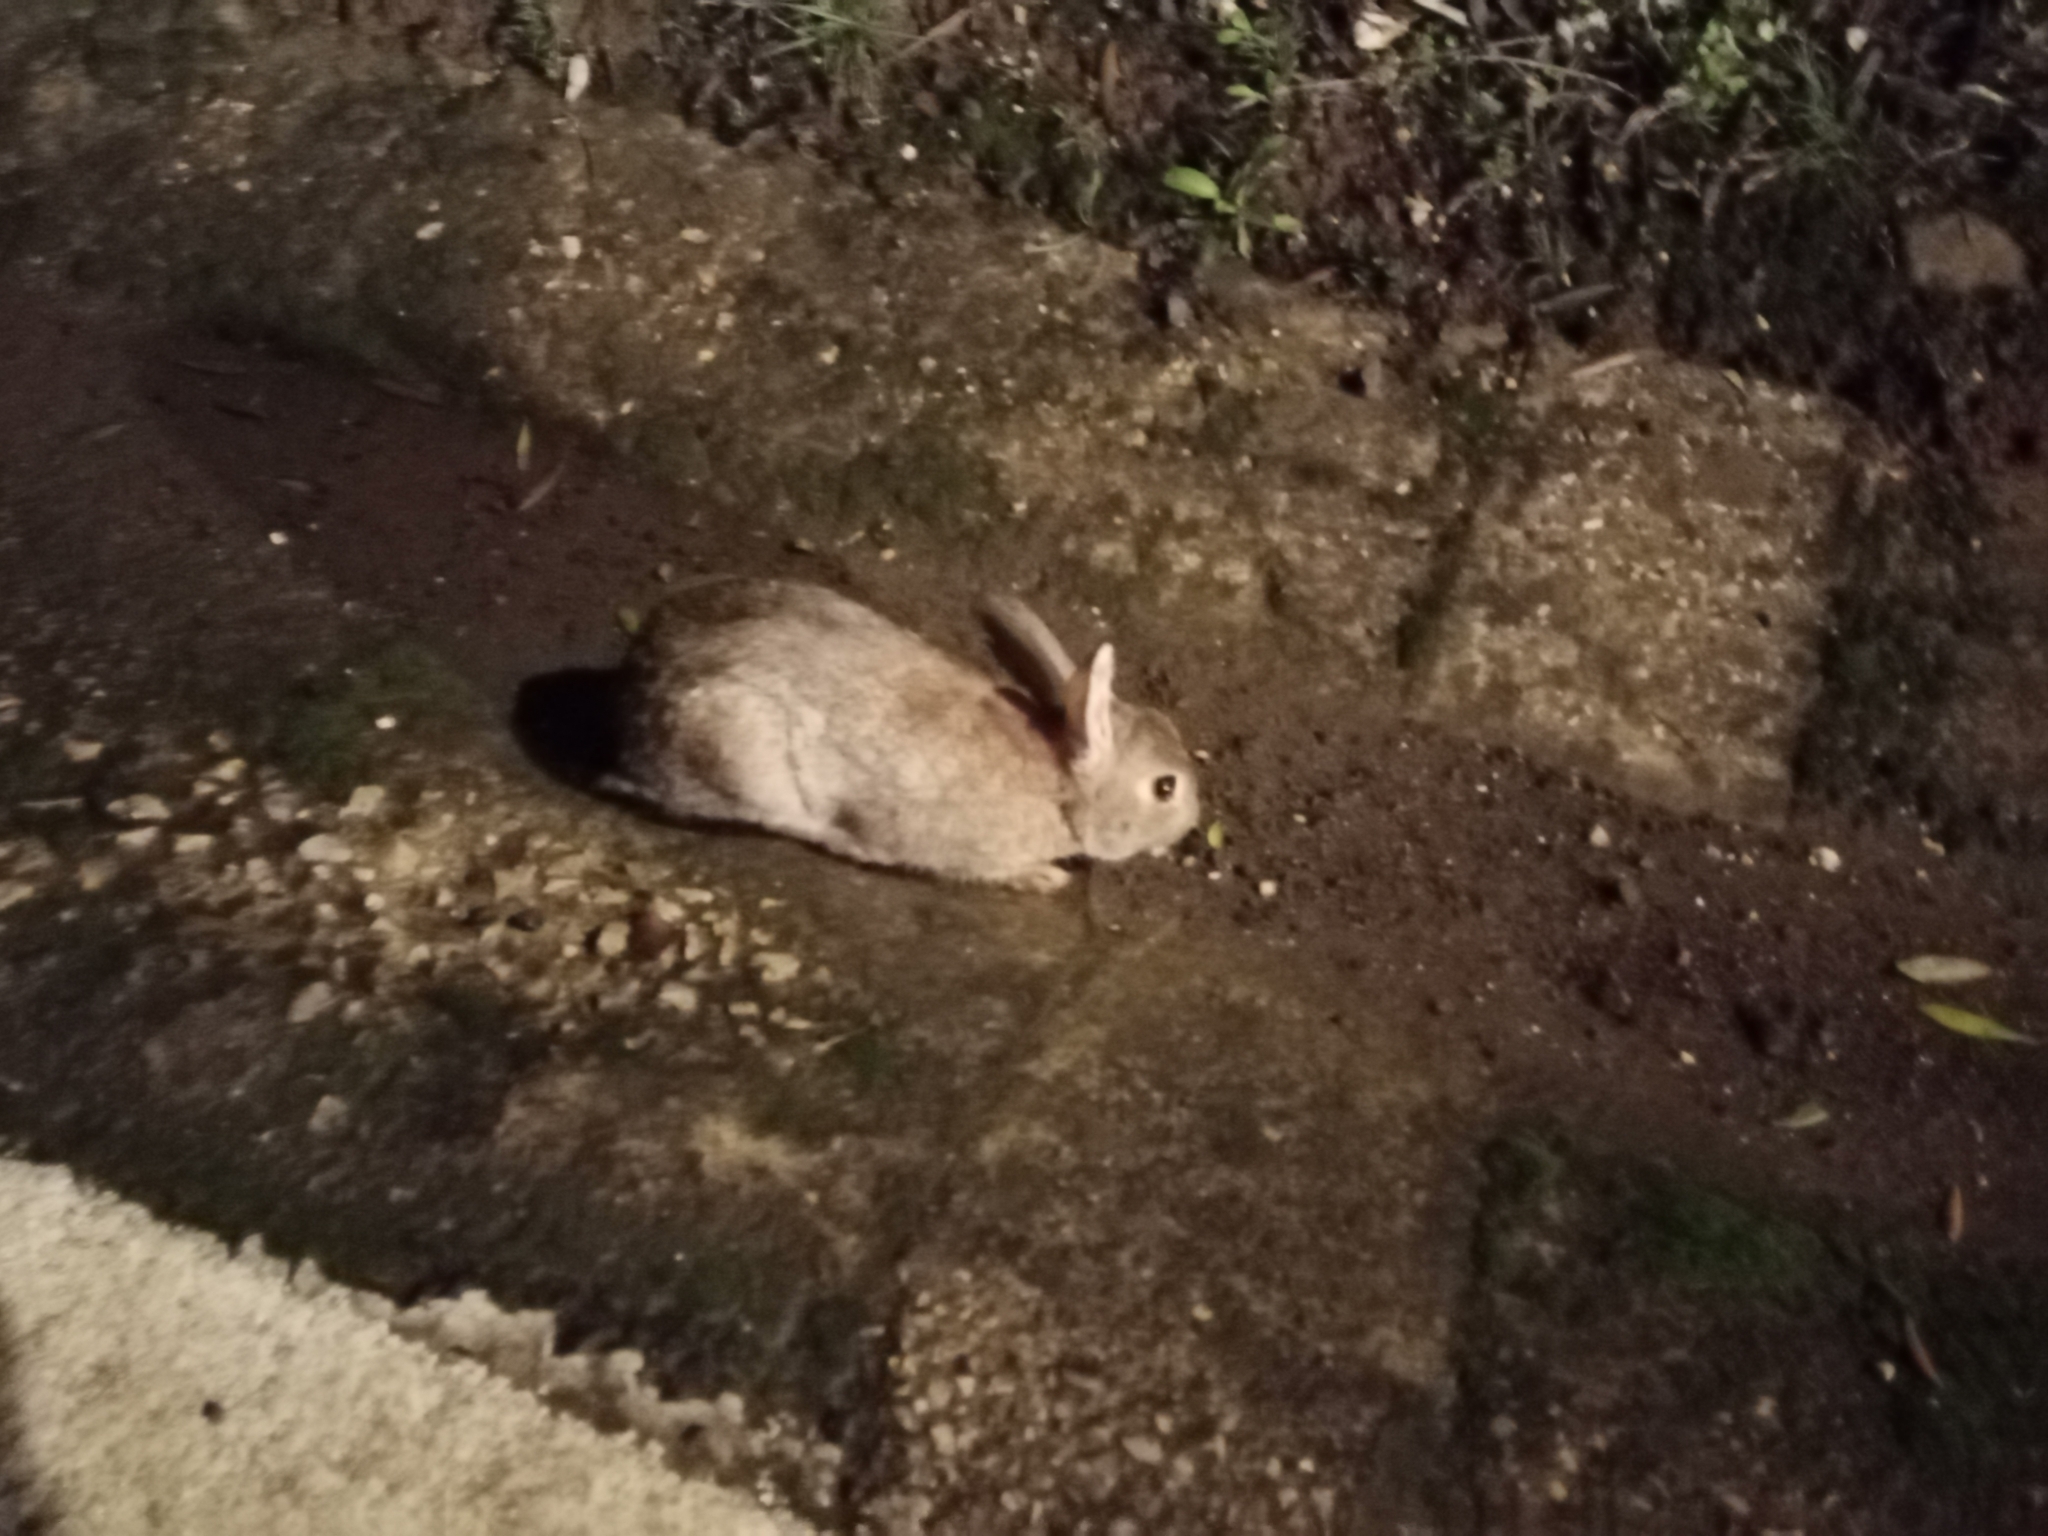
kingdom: Animalia
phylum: Chordata
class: Mammalia
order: Lagomorpha
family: Leporidae
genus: Oryctolagus
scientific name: Oryctolagus cuniculus
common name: European rabbit
